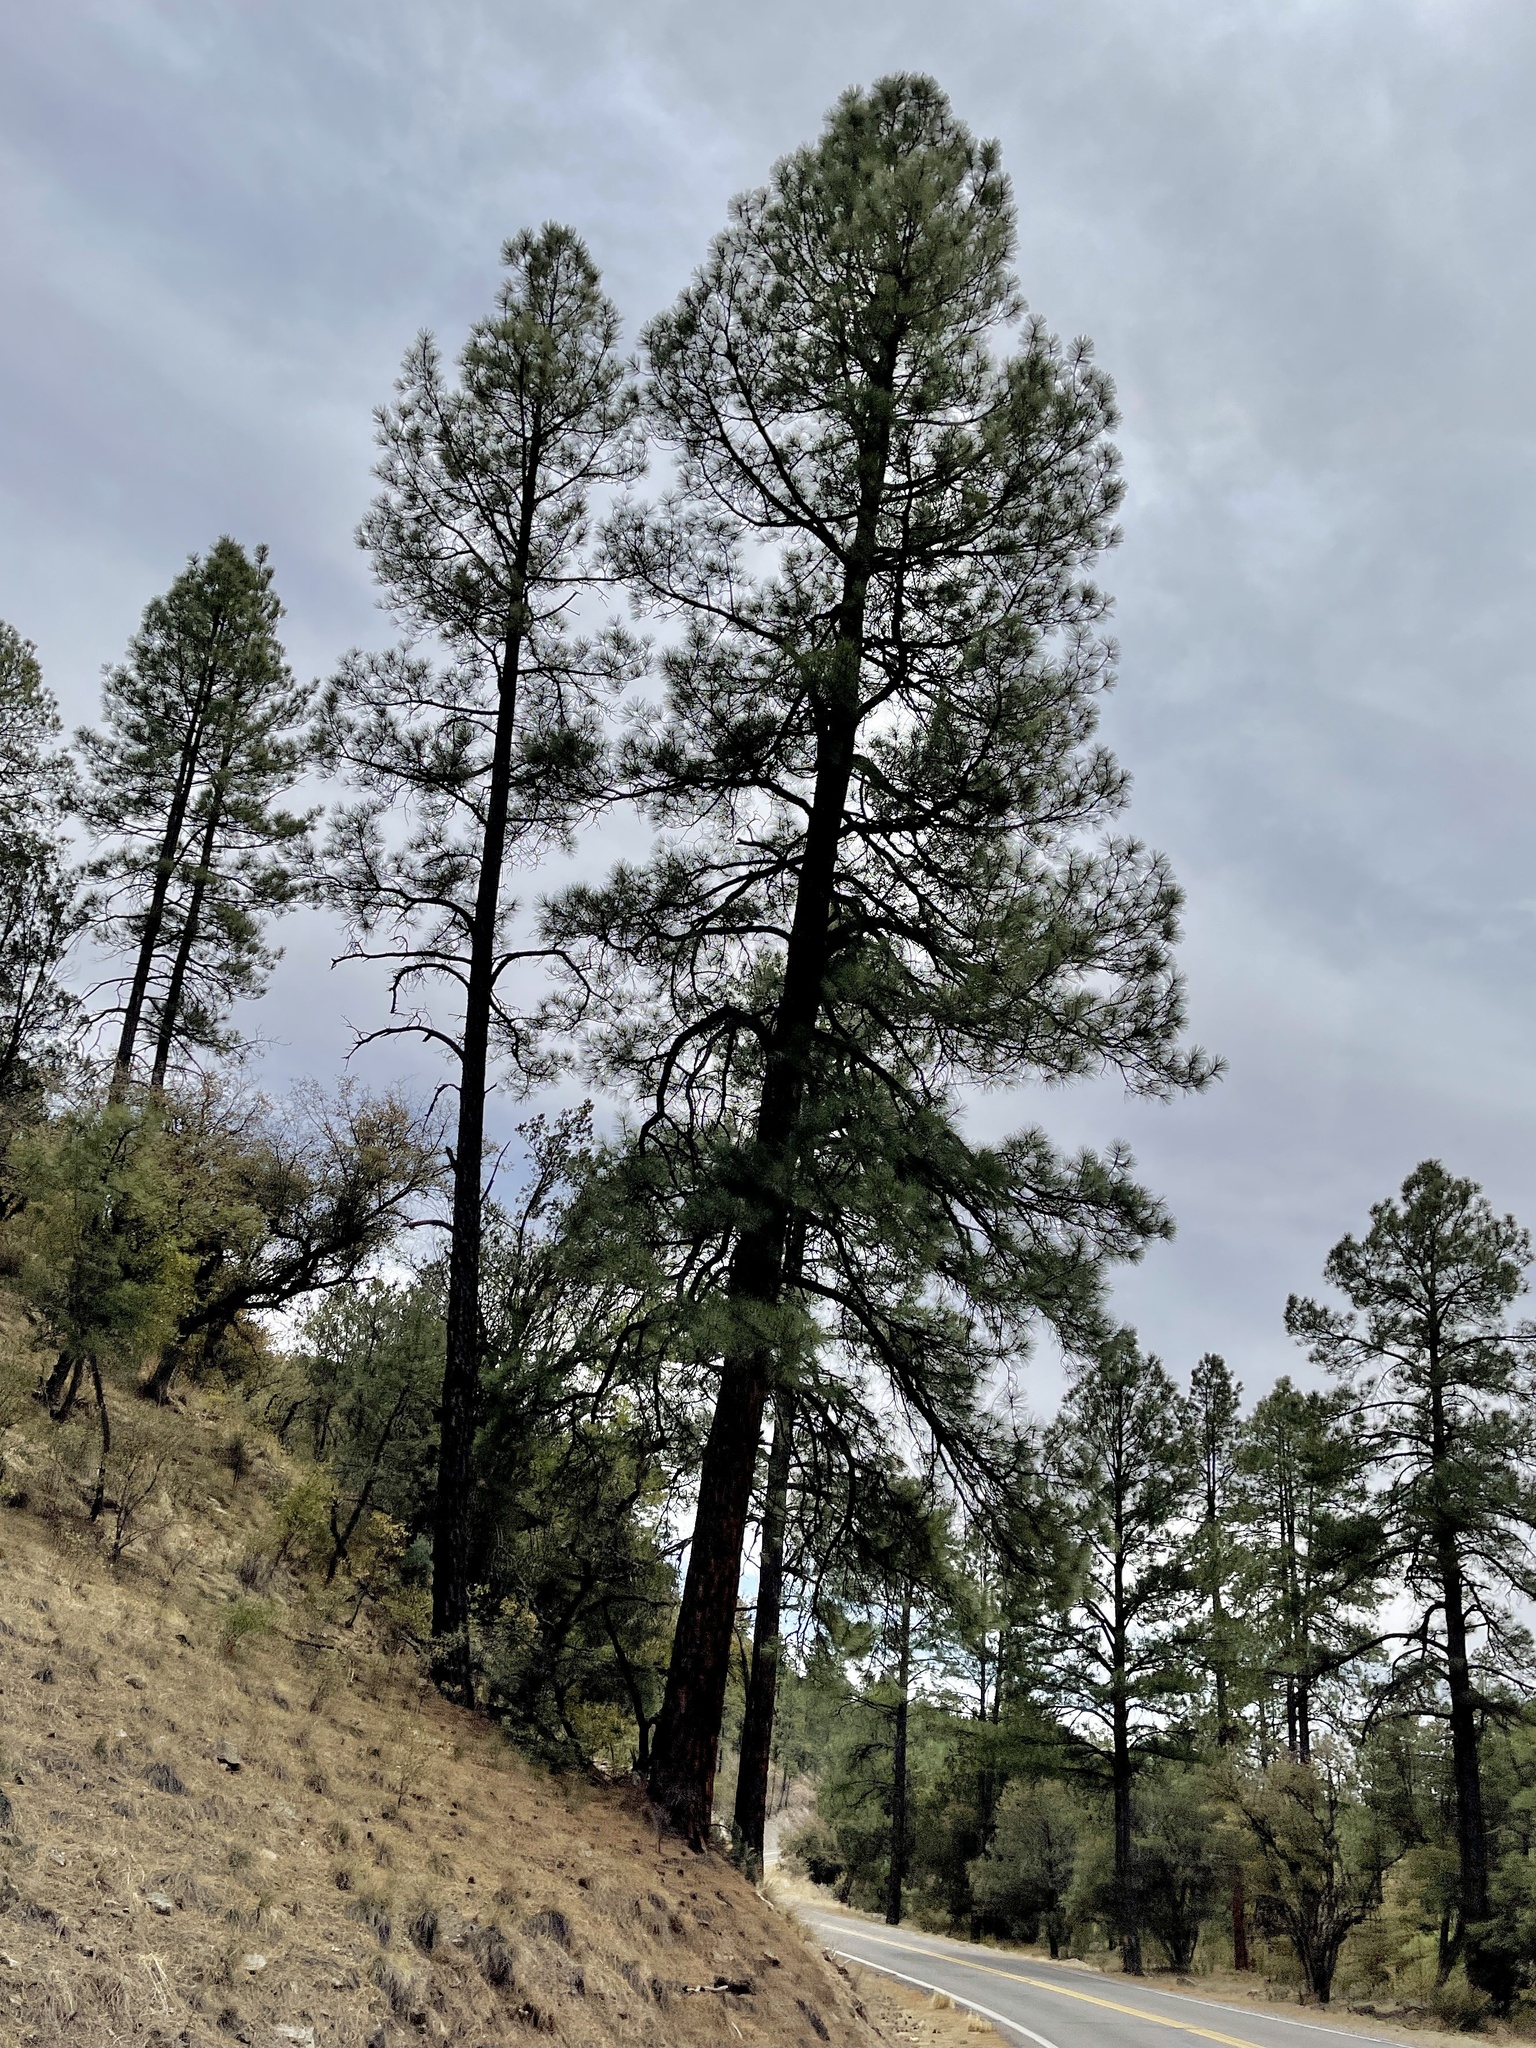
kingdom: Plantae
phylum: Tracheophyta
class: Pinopsida
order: Pinales
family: Pinaceae
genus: Pinus
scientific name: Pinus ponderosa
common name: Western yellow-pine
